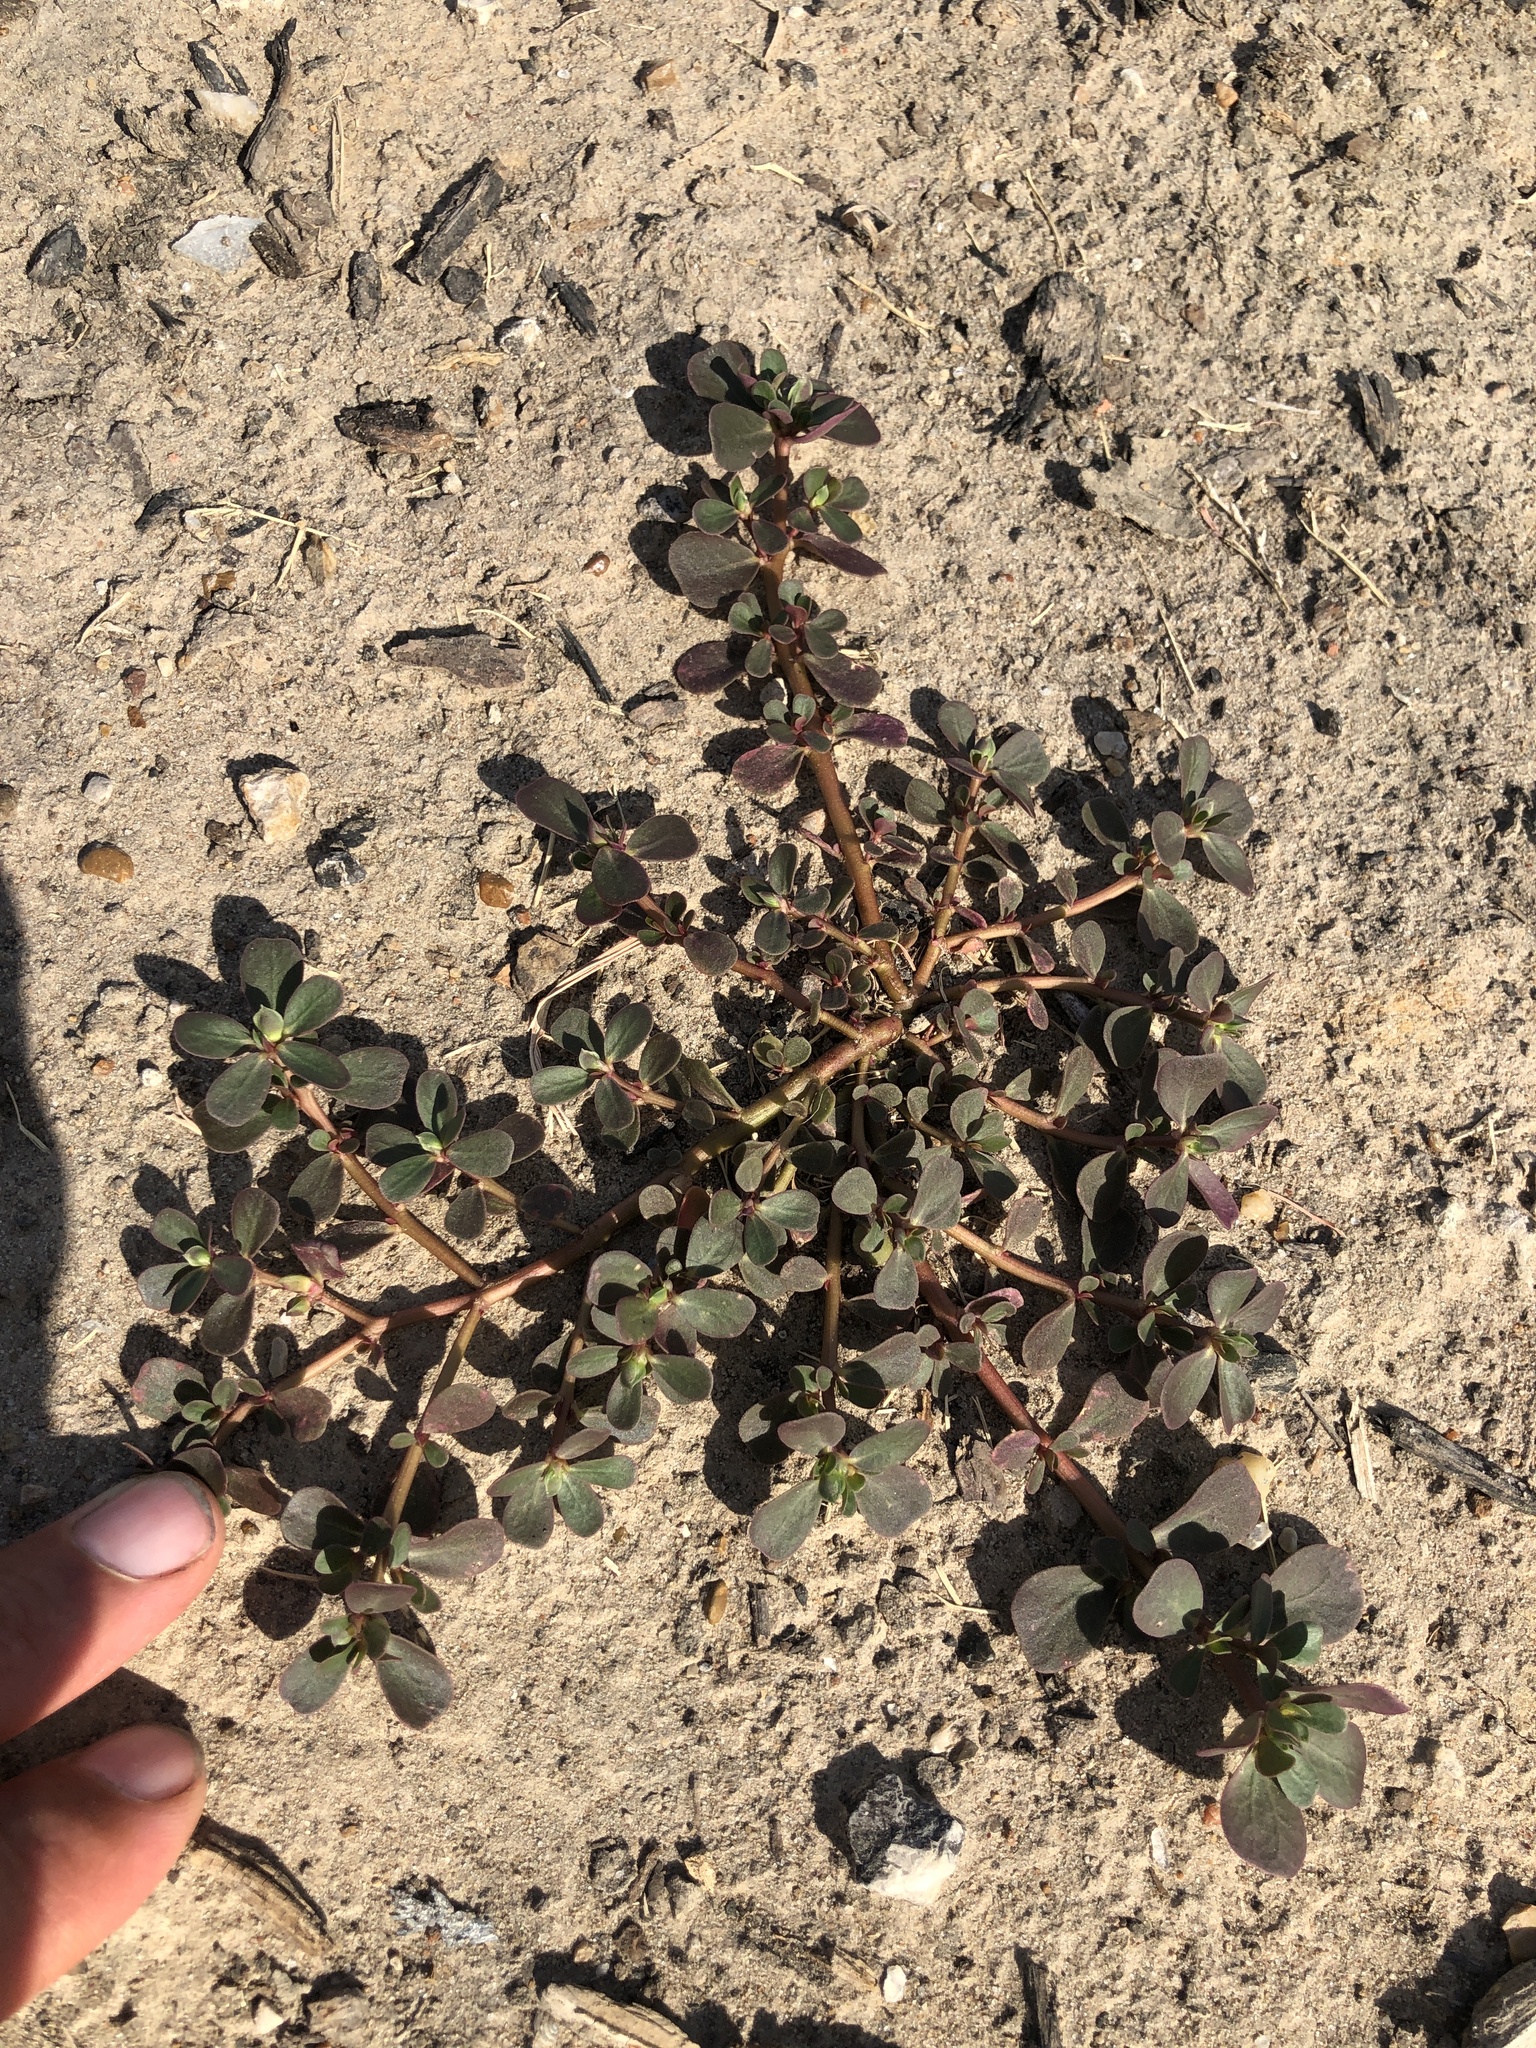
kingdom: Plantae
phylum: Tracheophyta
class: Magnoliopsida
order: Caryophyllales
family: Portulacaceae
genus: Portulaca
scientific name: Portulaca oleracea
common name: Common purslane
